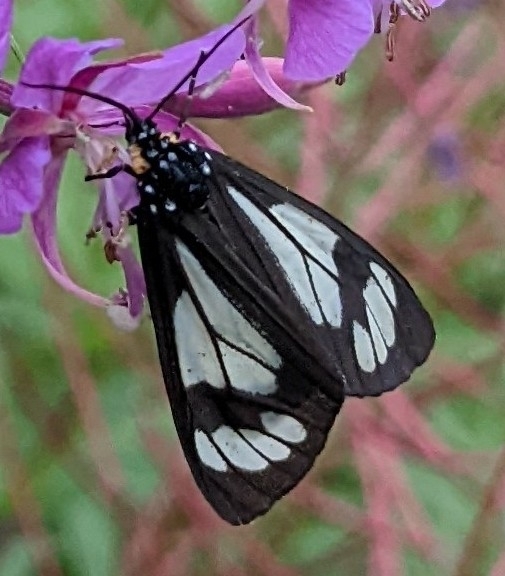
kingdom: Animalia
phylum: Arthropoda
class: Insecta
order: Lepidoptera
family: Erebidae
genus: Gnophaela
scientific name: Gnophaela vermiculata
